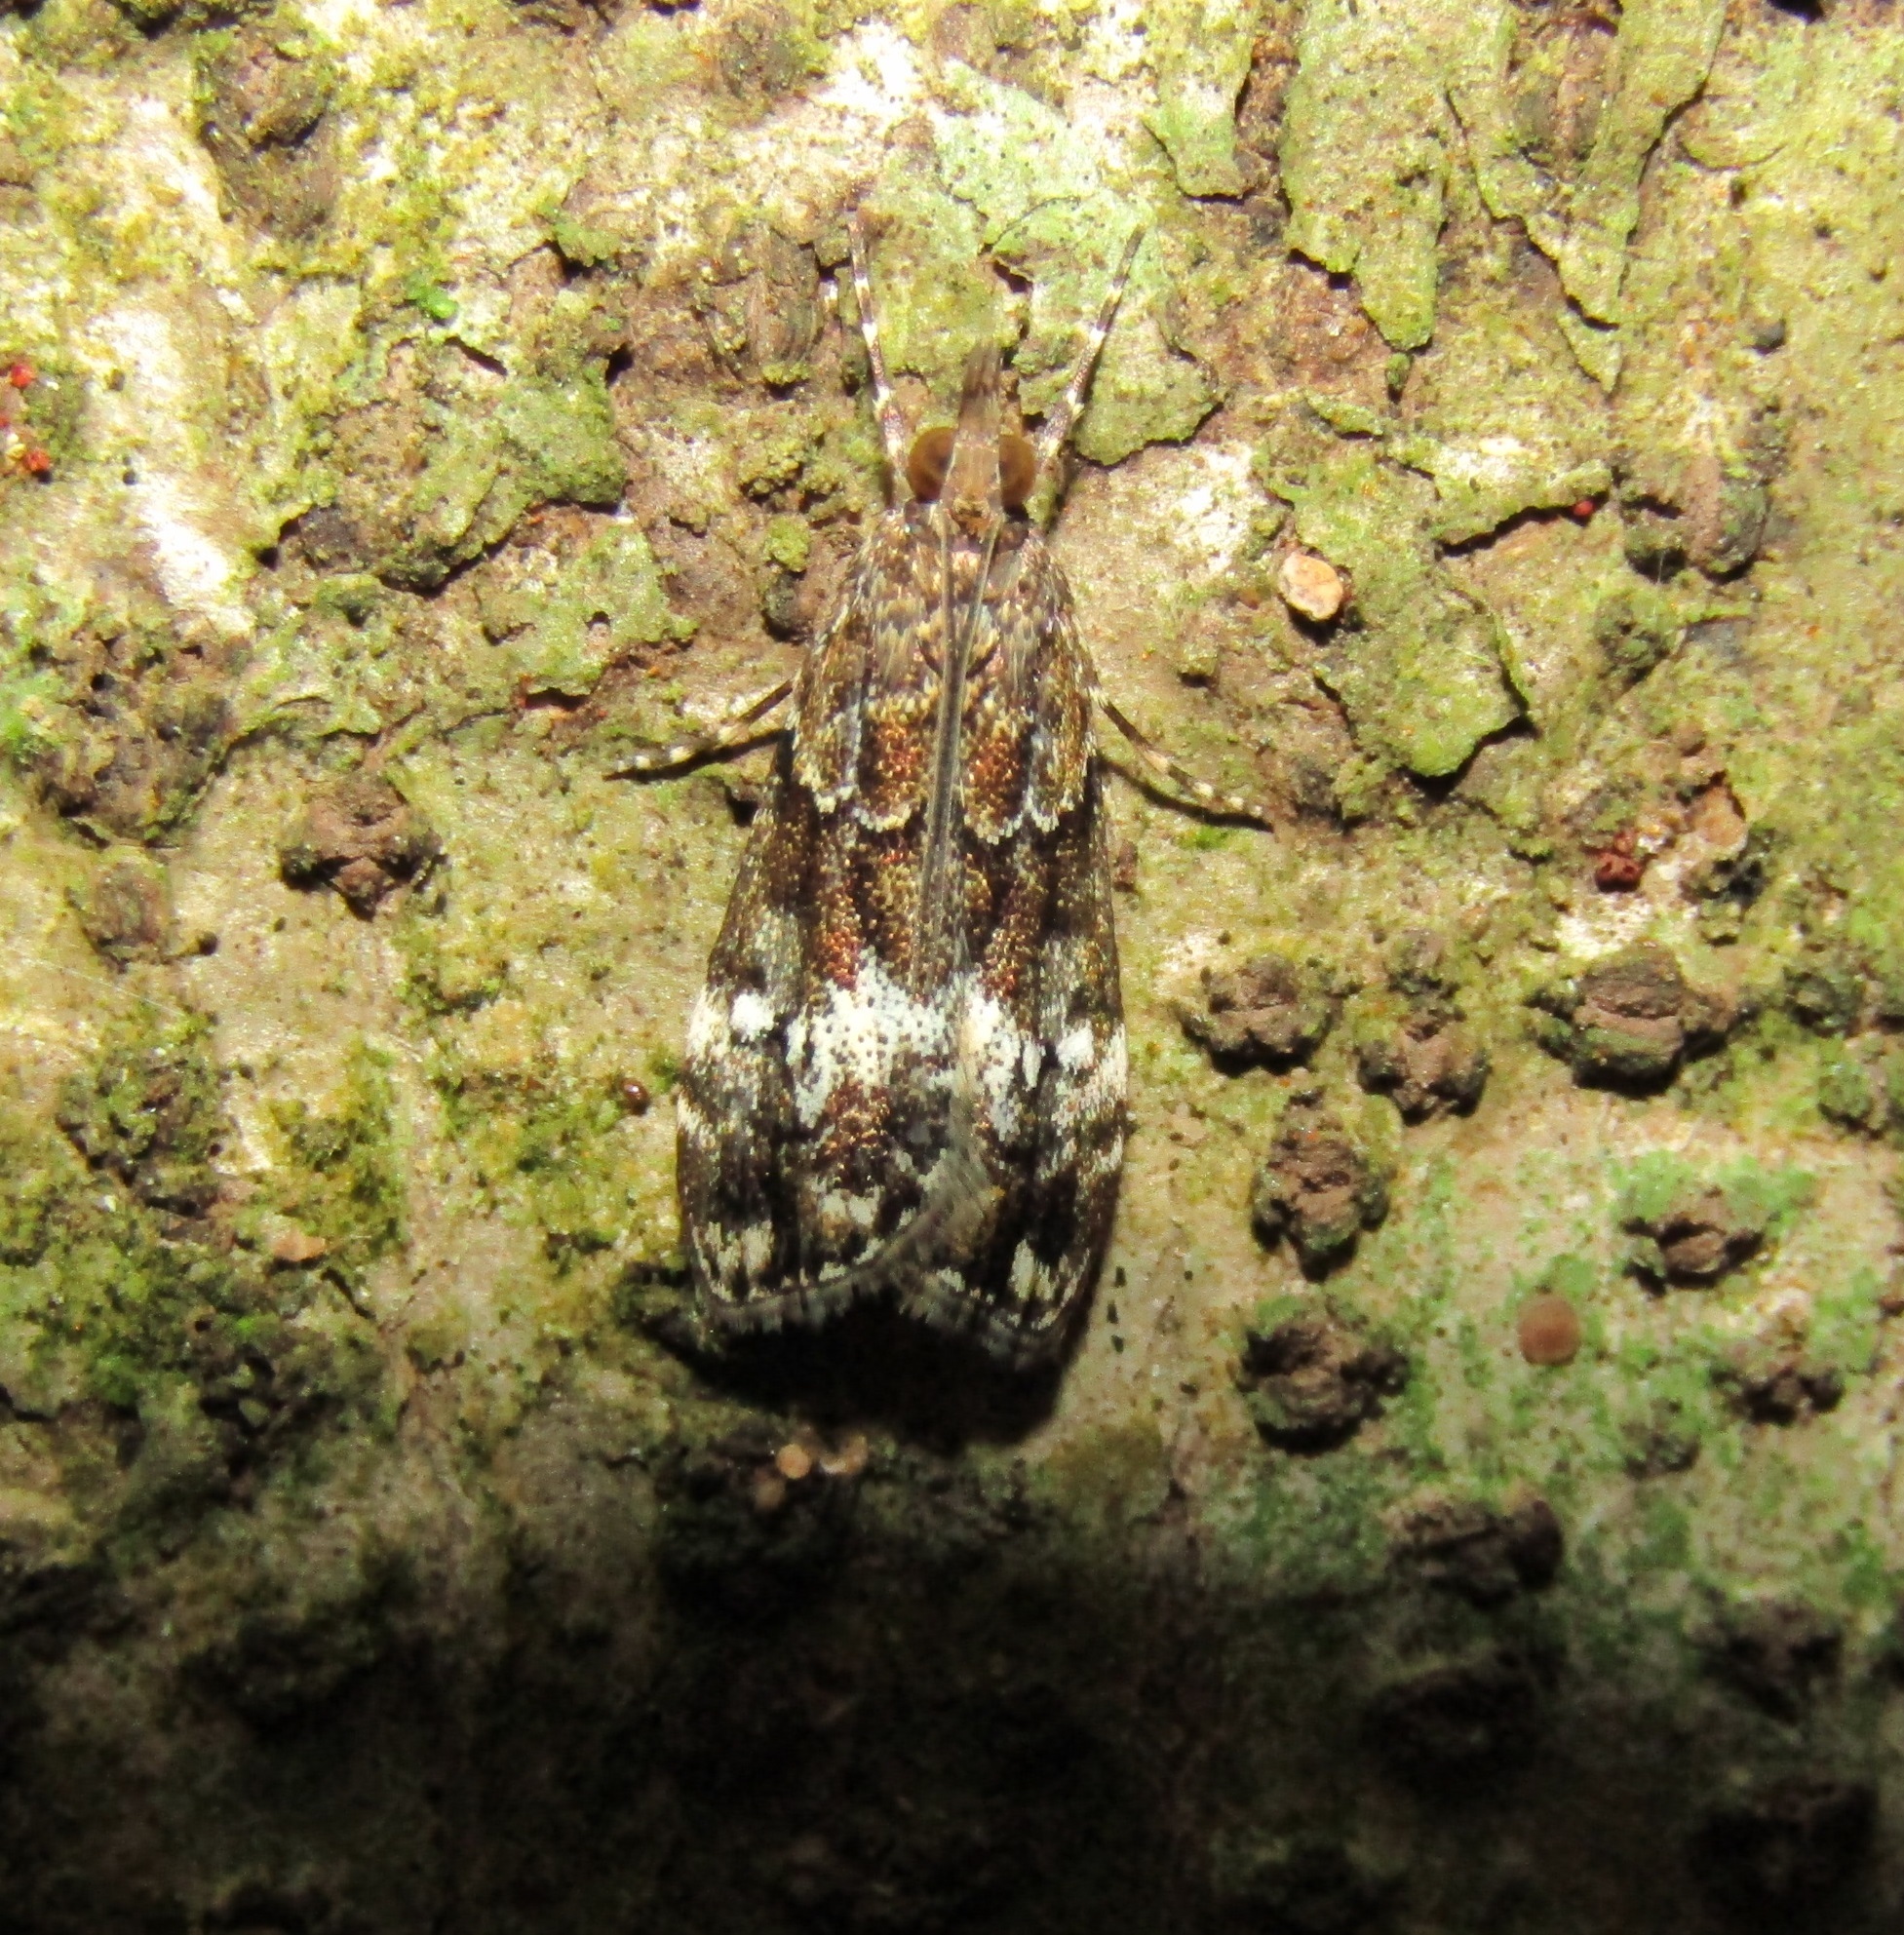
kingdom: Animalia
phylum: Arthropoda
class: Insecta
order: Lepidoptera
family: Crambidae
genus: Eudonia
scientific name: Eudonia dinodes
